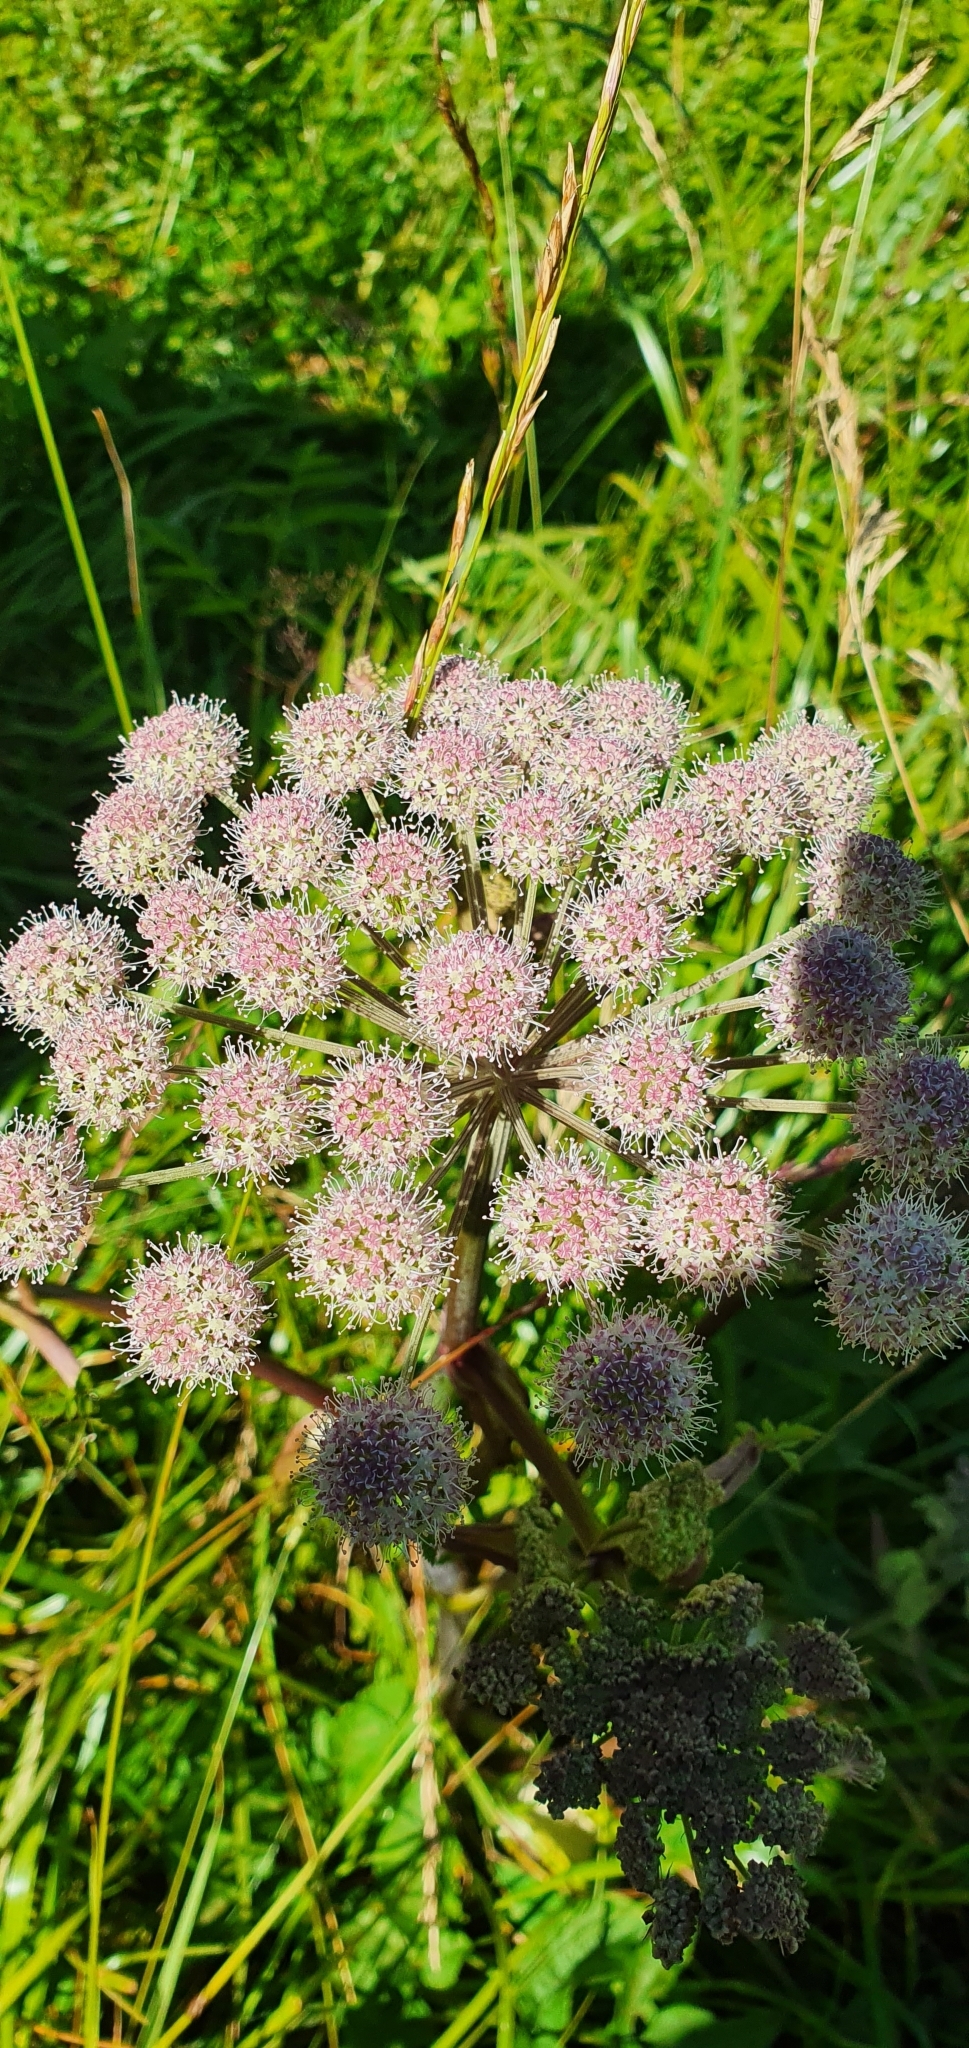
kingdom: Plantae
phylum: Tracheophyta
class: Magnoliopsida
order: Apiales
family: Apiaceae
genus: Angelica
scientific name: Angelica sylvestris
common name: Wild angelica
